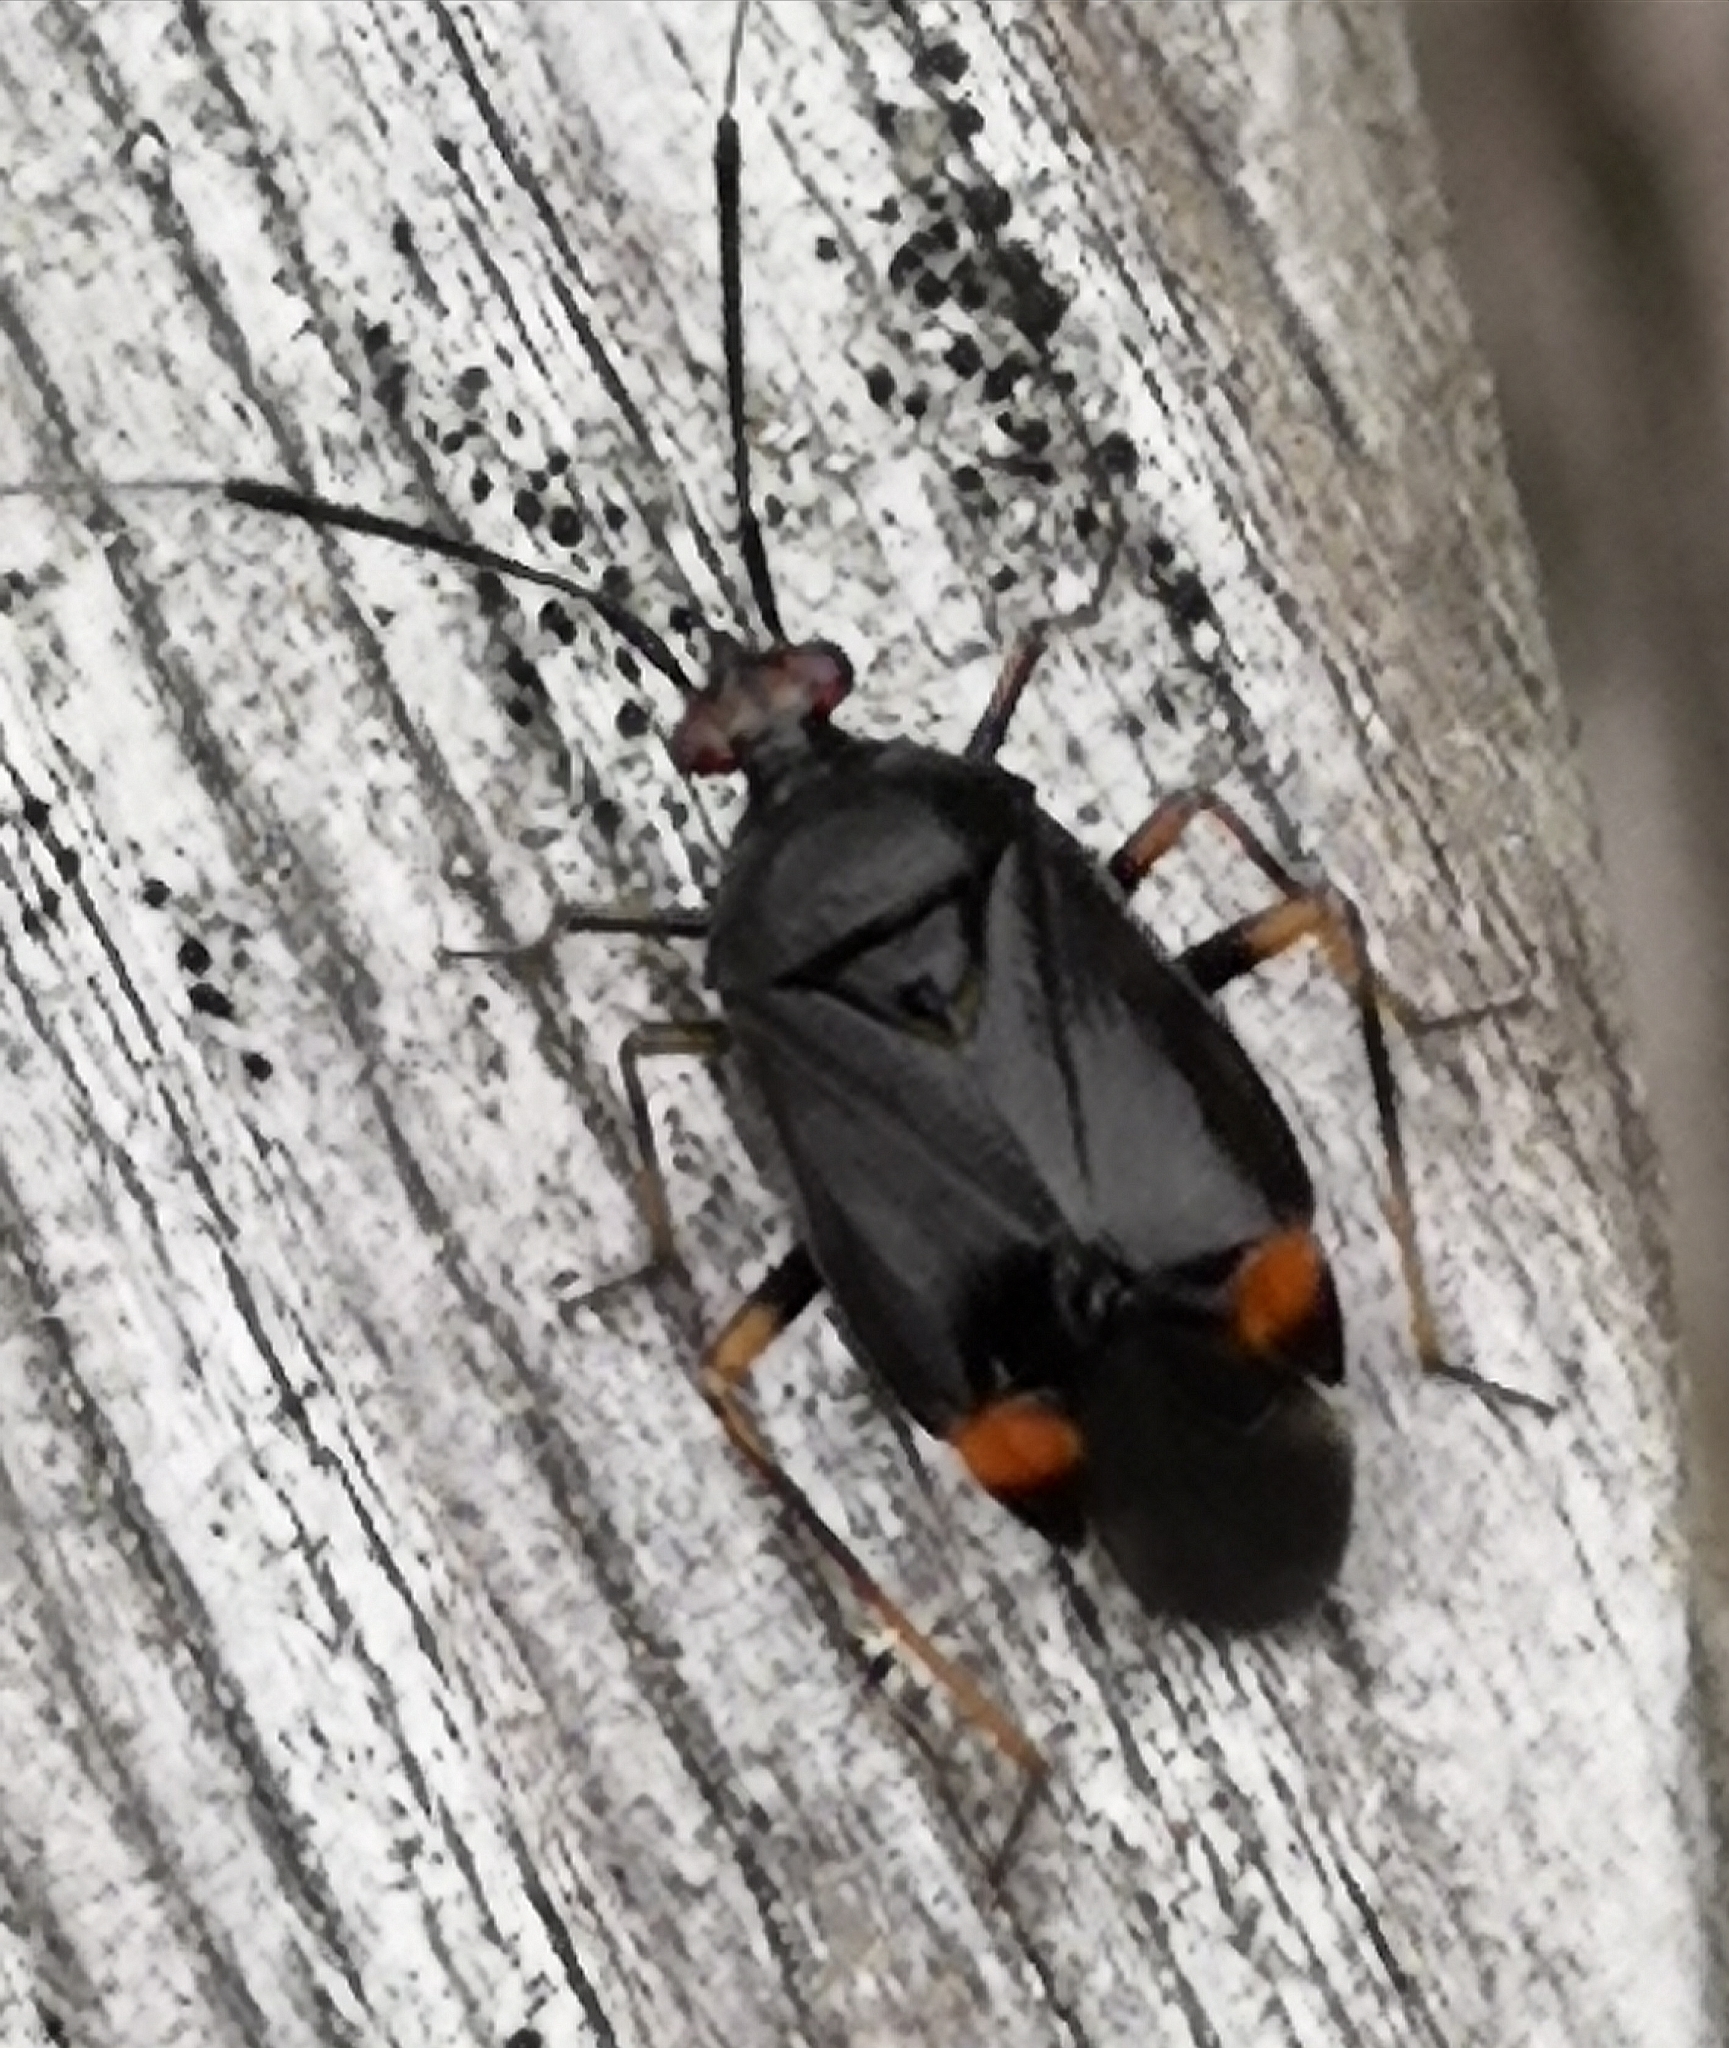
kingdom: Animalia
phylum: Arthropoda
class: Insecta
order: Hemiptera
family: Miridae
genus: Deraeocoris
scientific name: Deraeocoris ruber
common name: Plant bug
